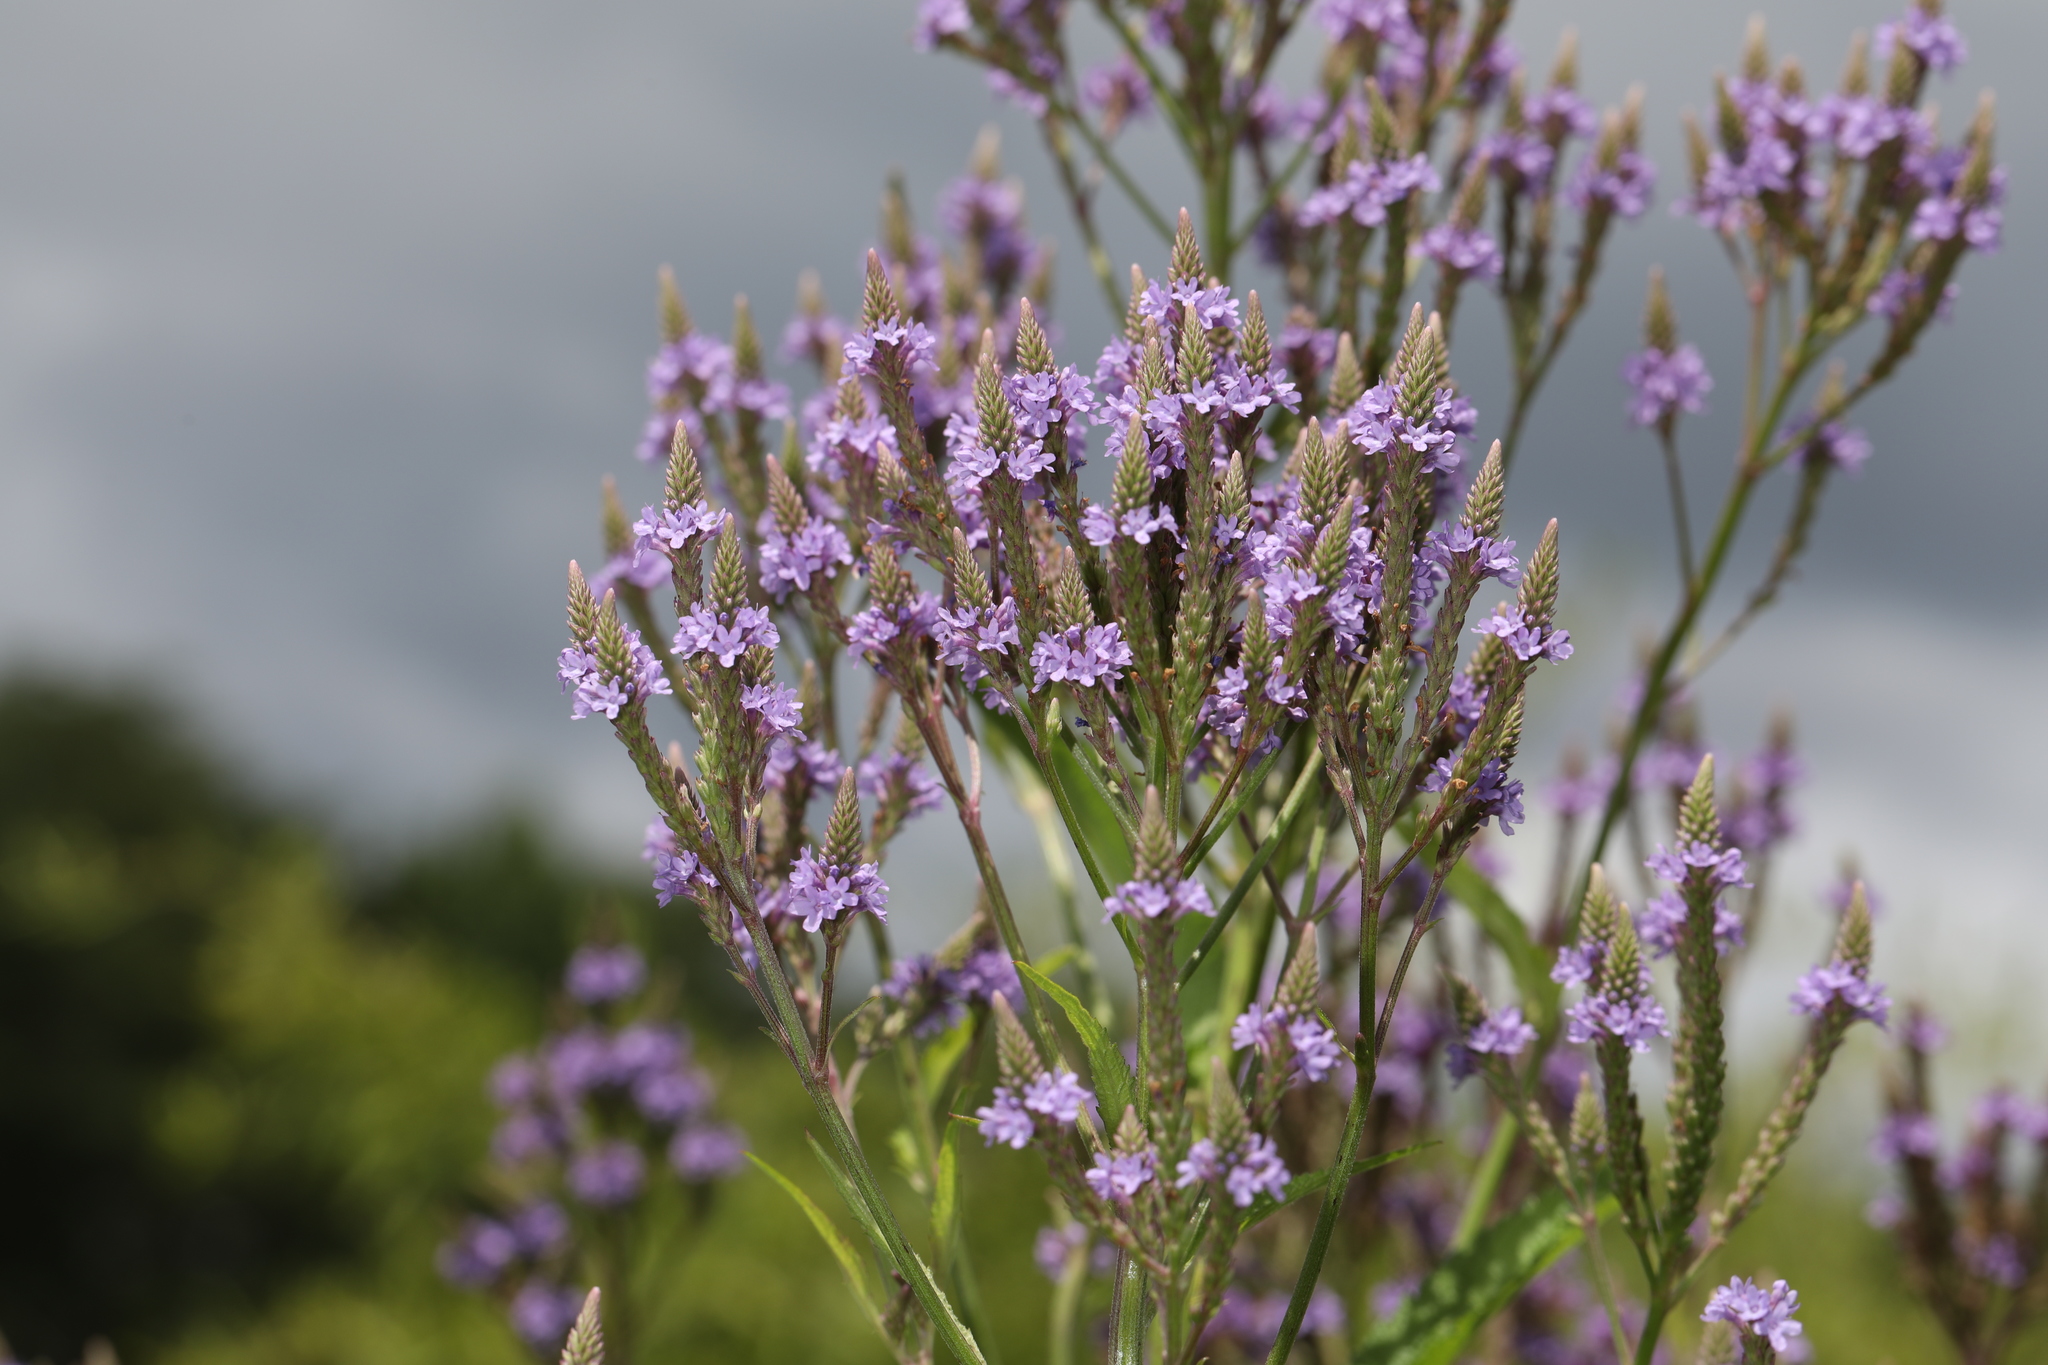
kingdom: Plantae
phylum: Tracheophyta
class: Magnoliopsida
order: Lamiales
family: Verbenaceae
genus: Verbena
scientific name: Verbena hastata
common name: American blue vervain
